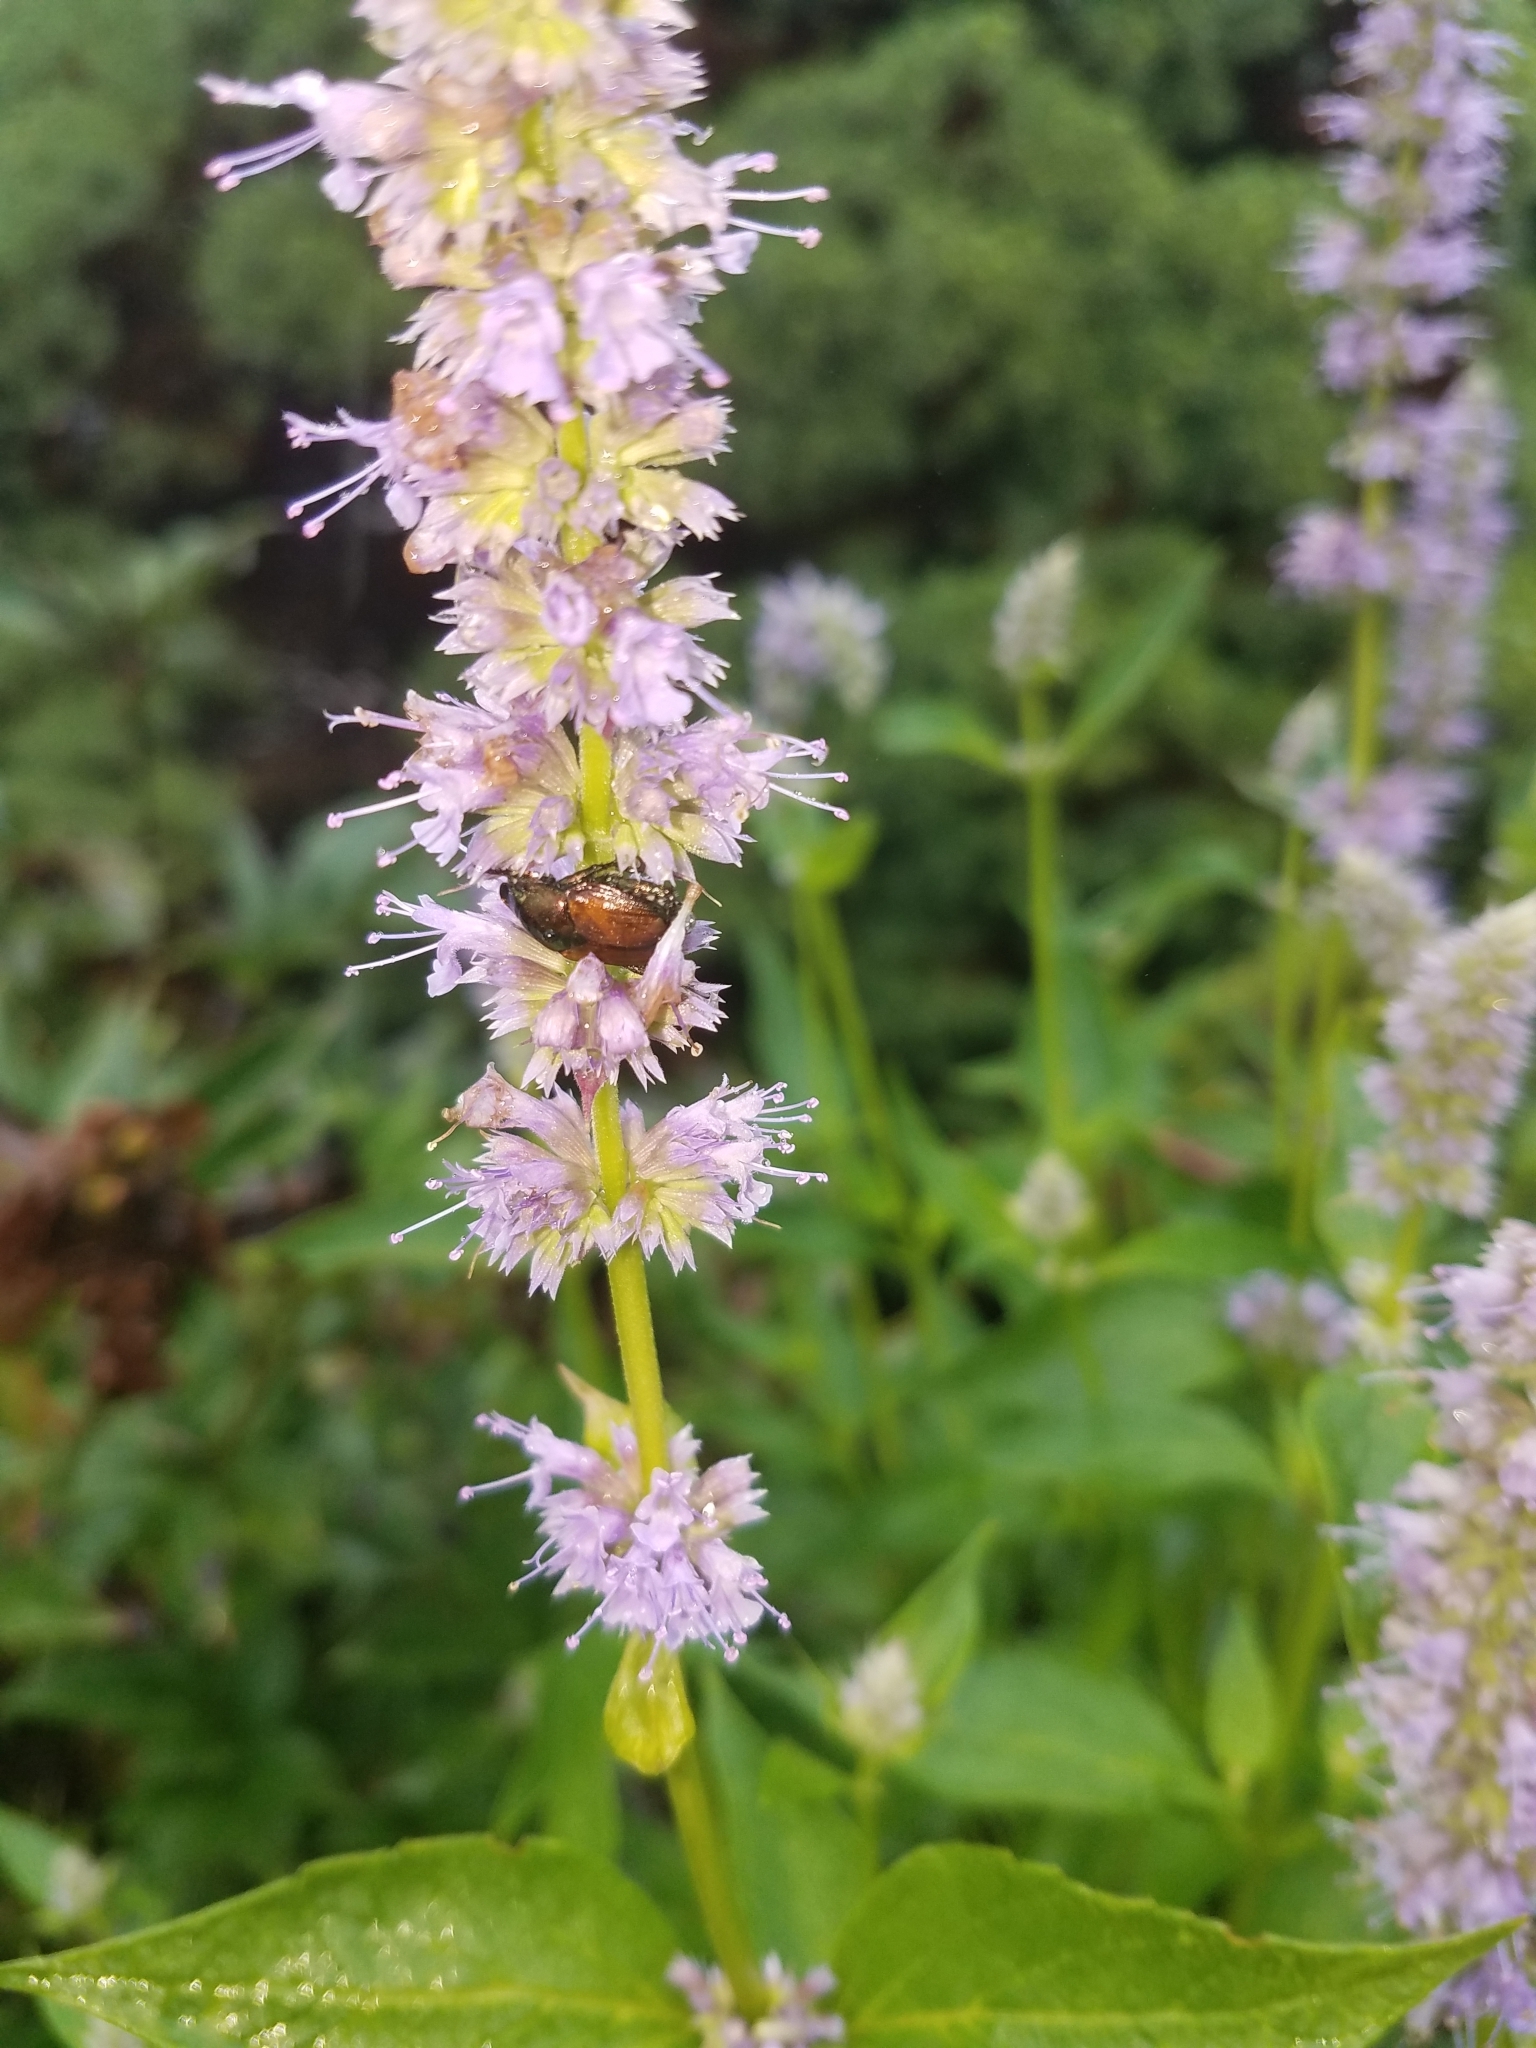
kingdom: Animalia
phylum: Arthropoda
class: Insecta
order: Coleoptera
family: Scarabaeidae
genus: Popillia
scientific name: Popillia japonica
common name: Japanese beetle
